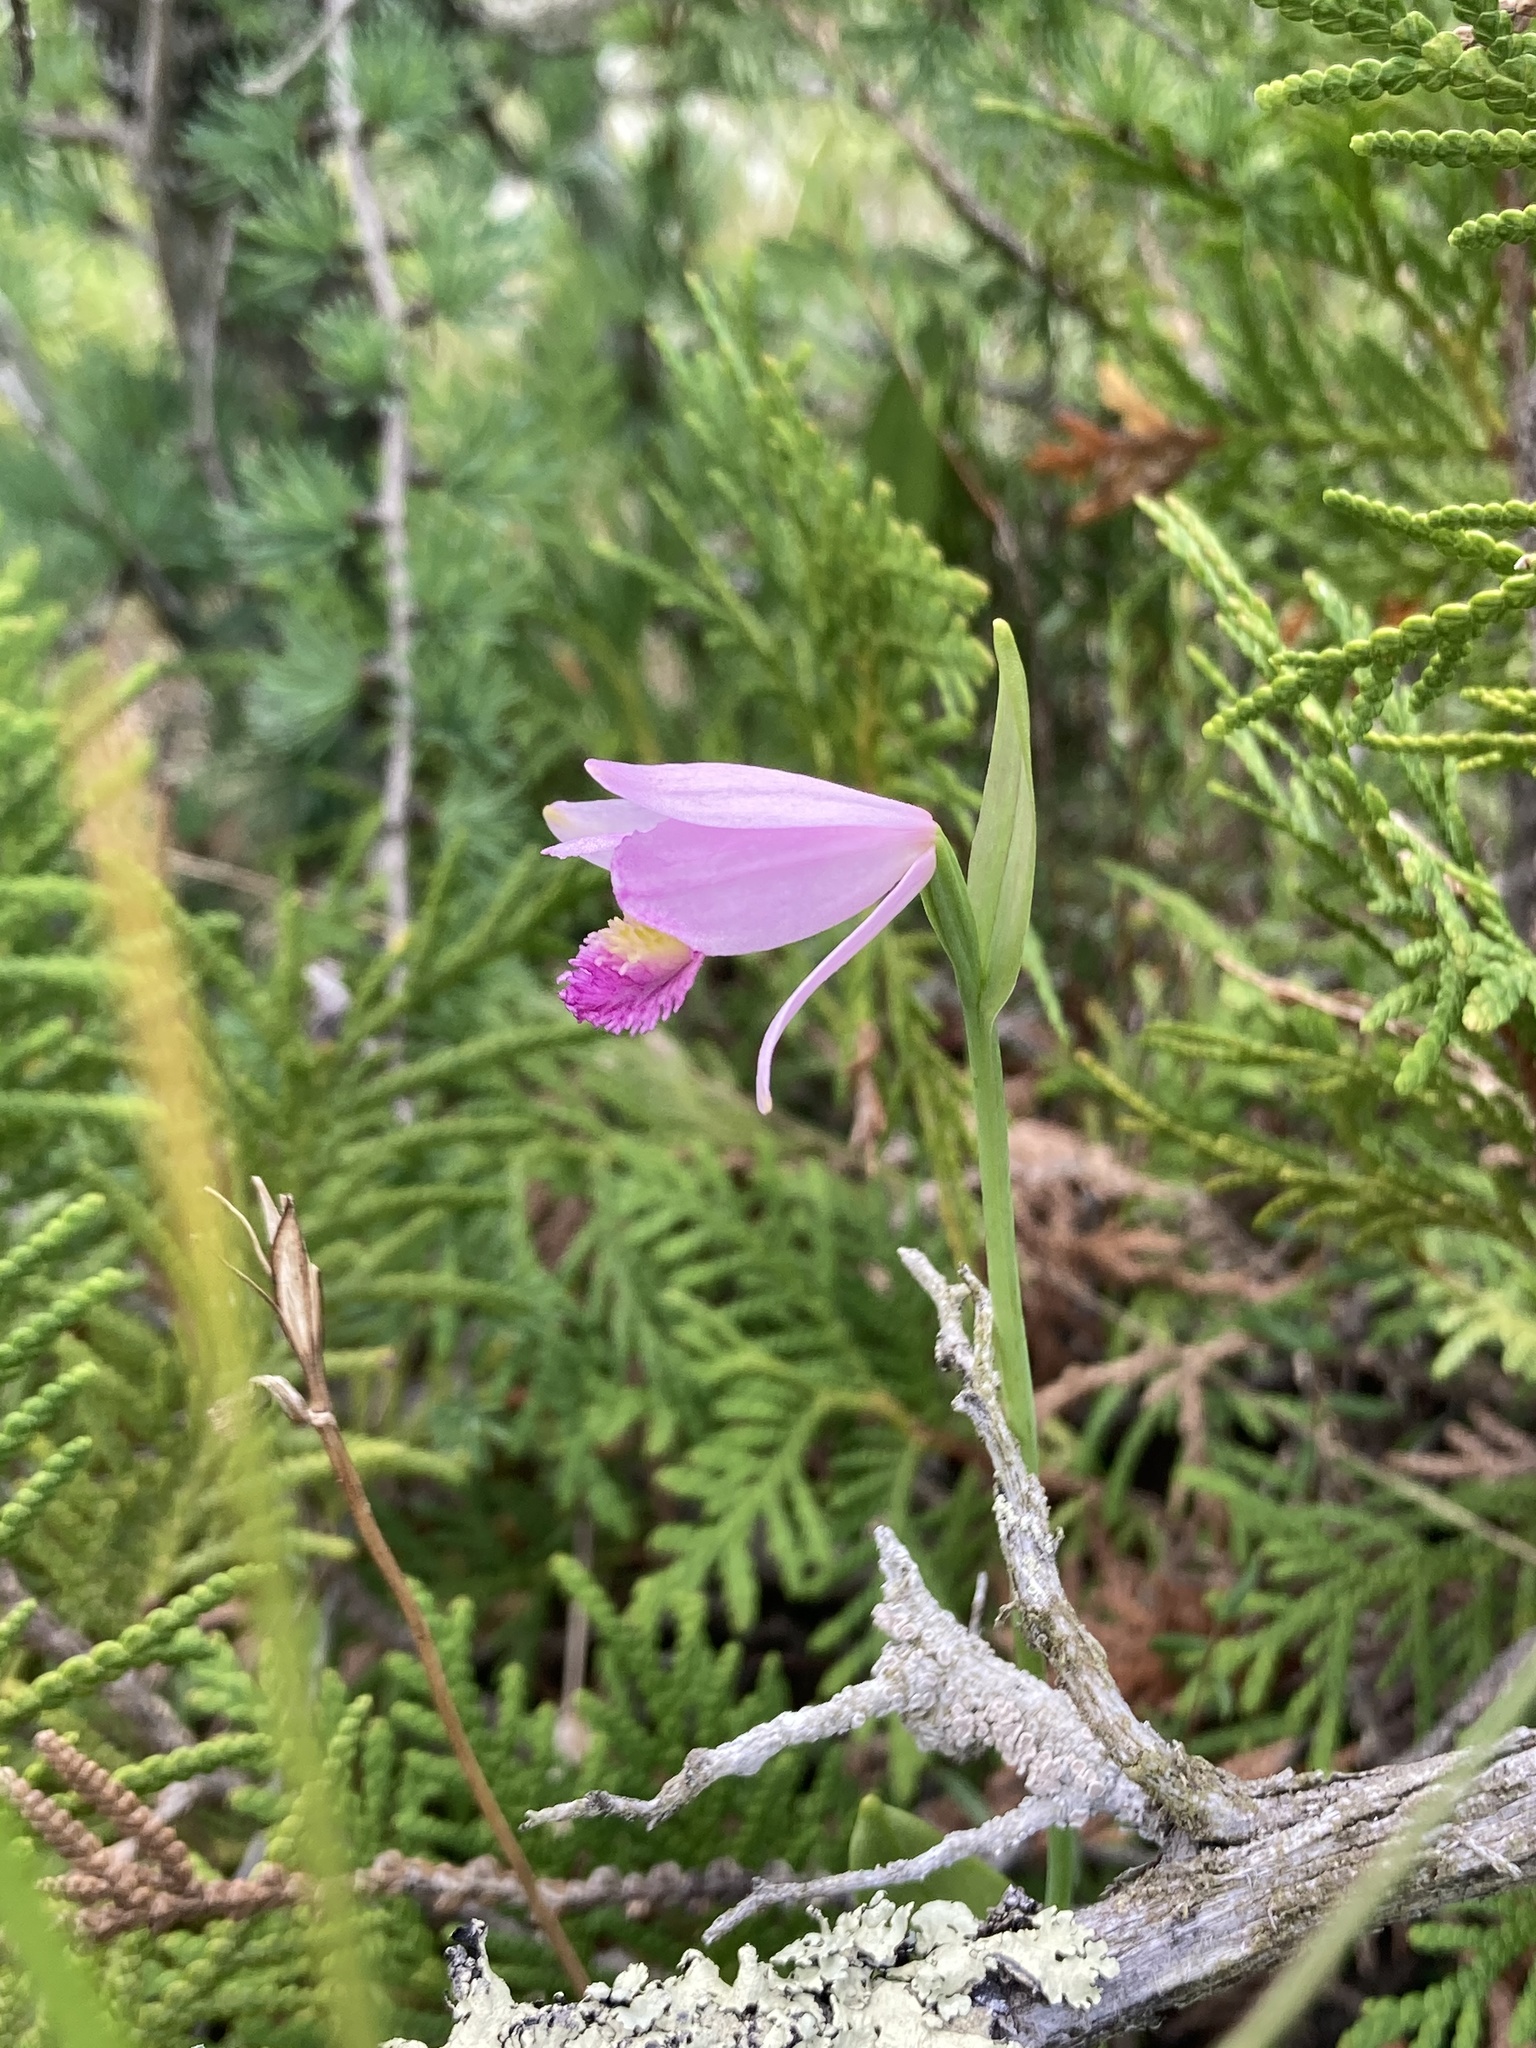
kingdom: Plantae
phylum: Tracheophyta
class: Liliopsida
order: Asparagales
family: Orchidaceae
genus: Pogonia
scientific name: Pogonia ophioglossoides
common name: Rose pogonia
